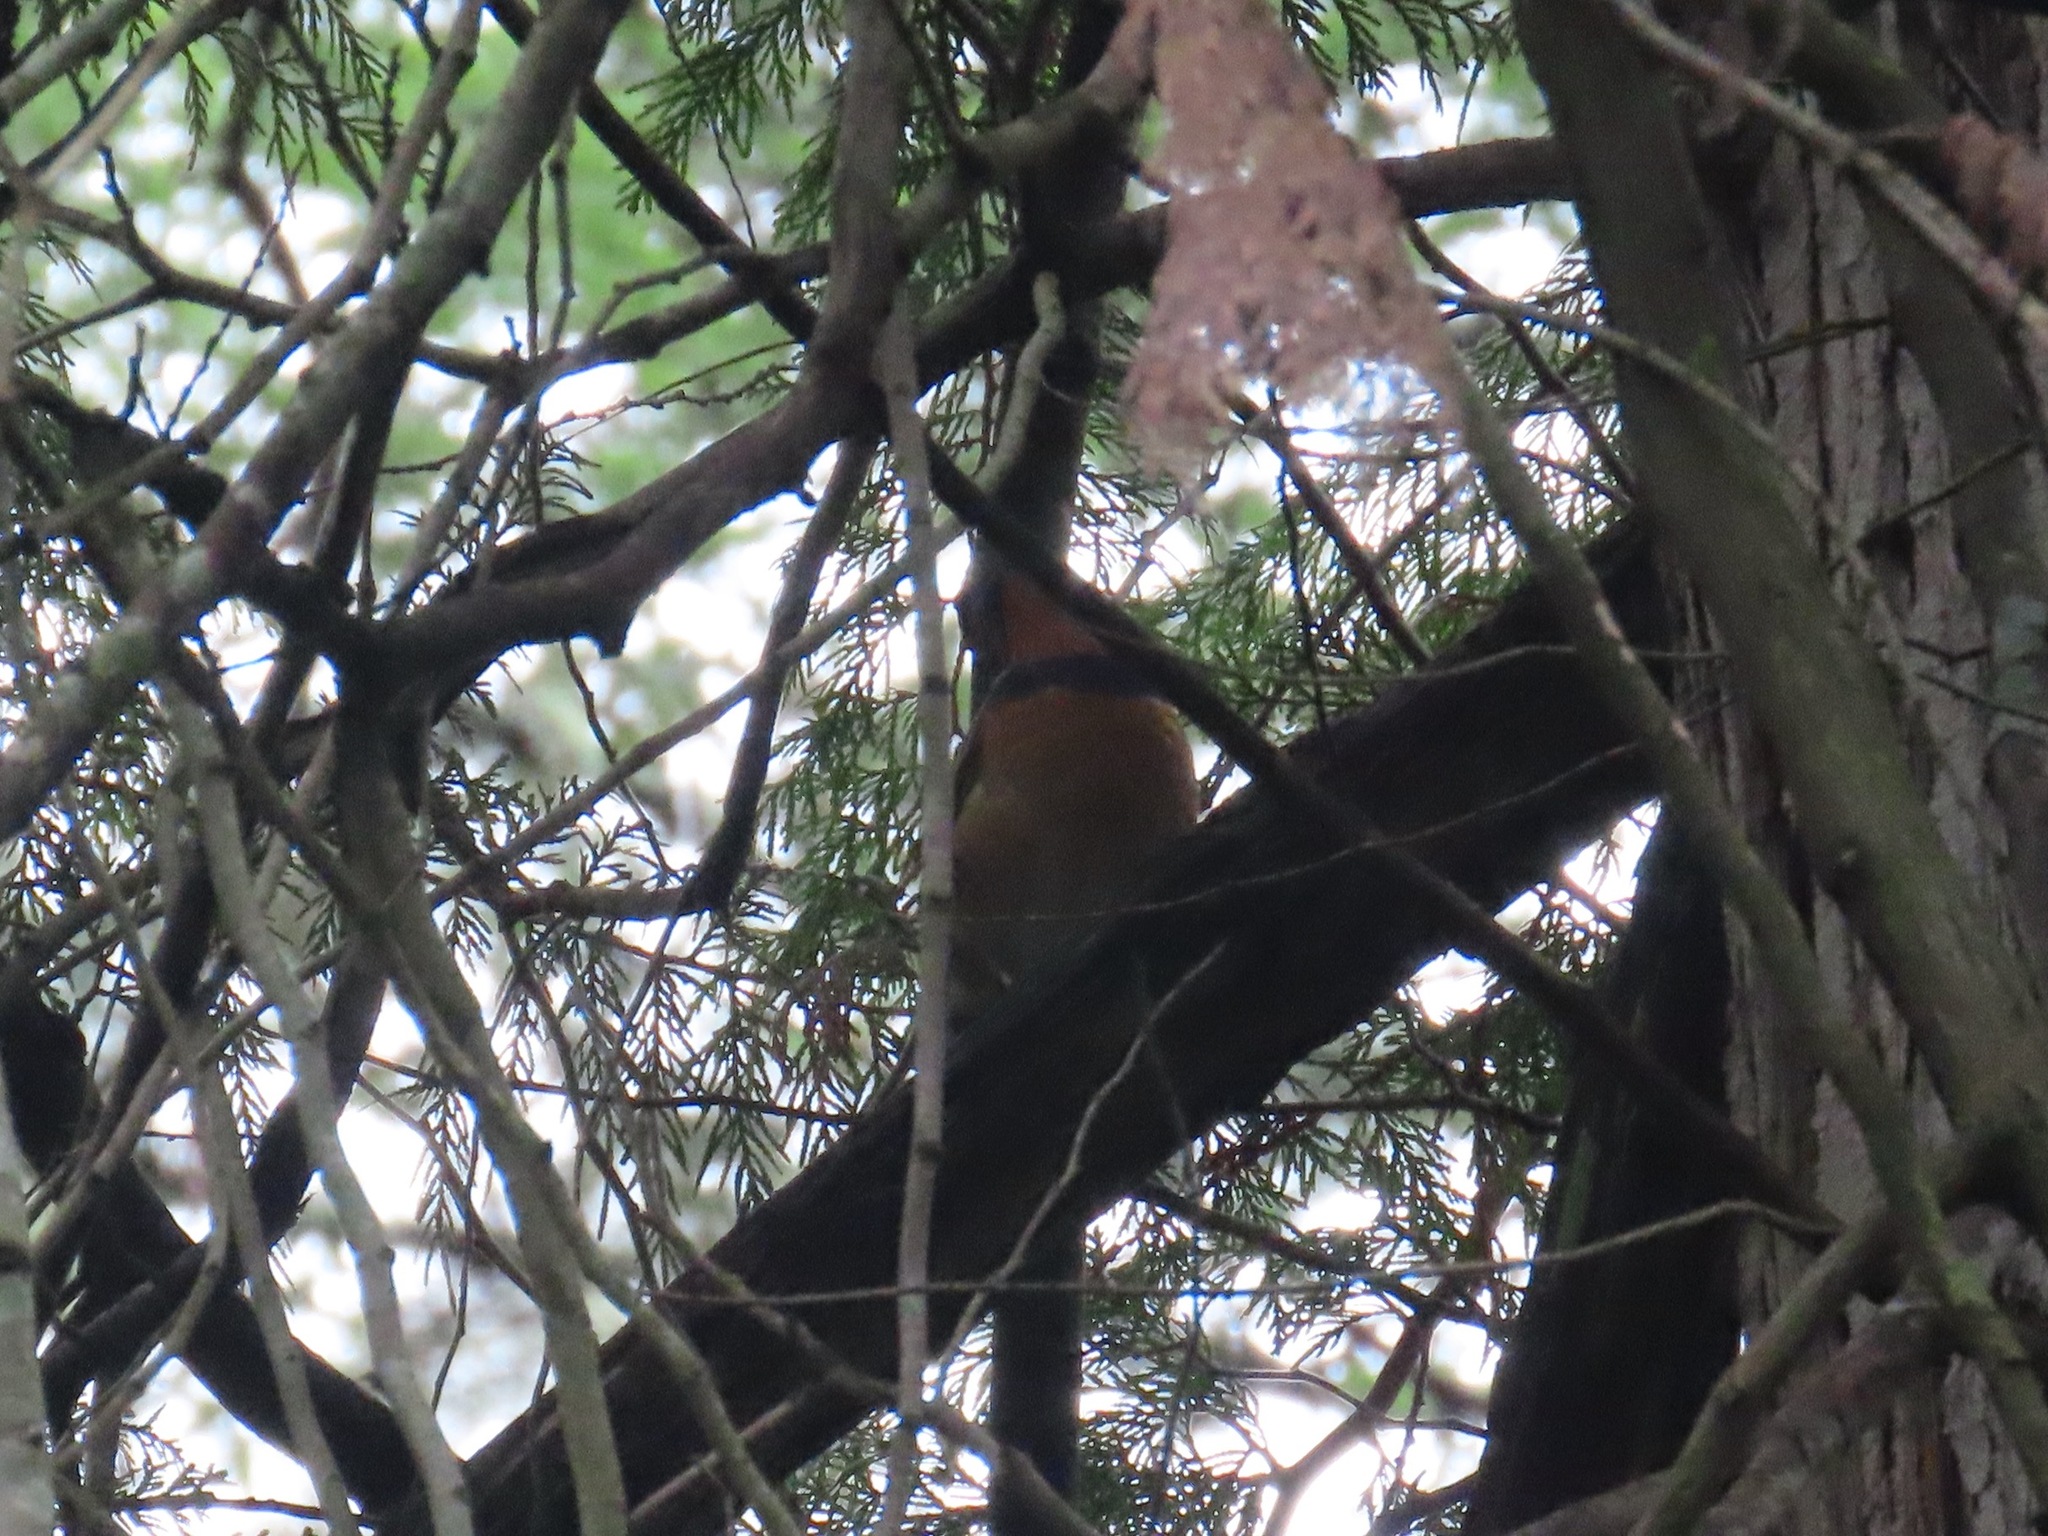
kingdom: Animalia
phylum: Chordata
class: Aves
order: Passeriformes
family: Turdidae
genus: Ixoreus
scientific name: Ixoreus naevius
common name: Varied thrush
